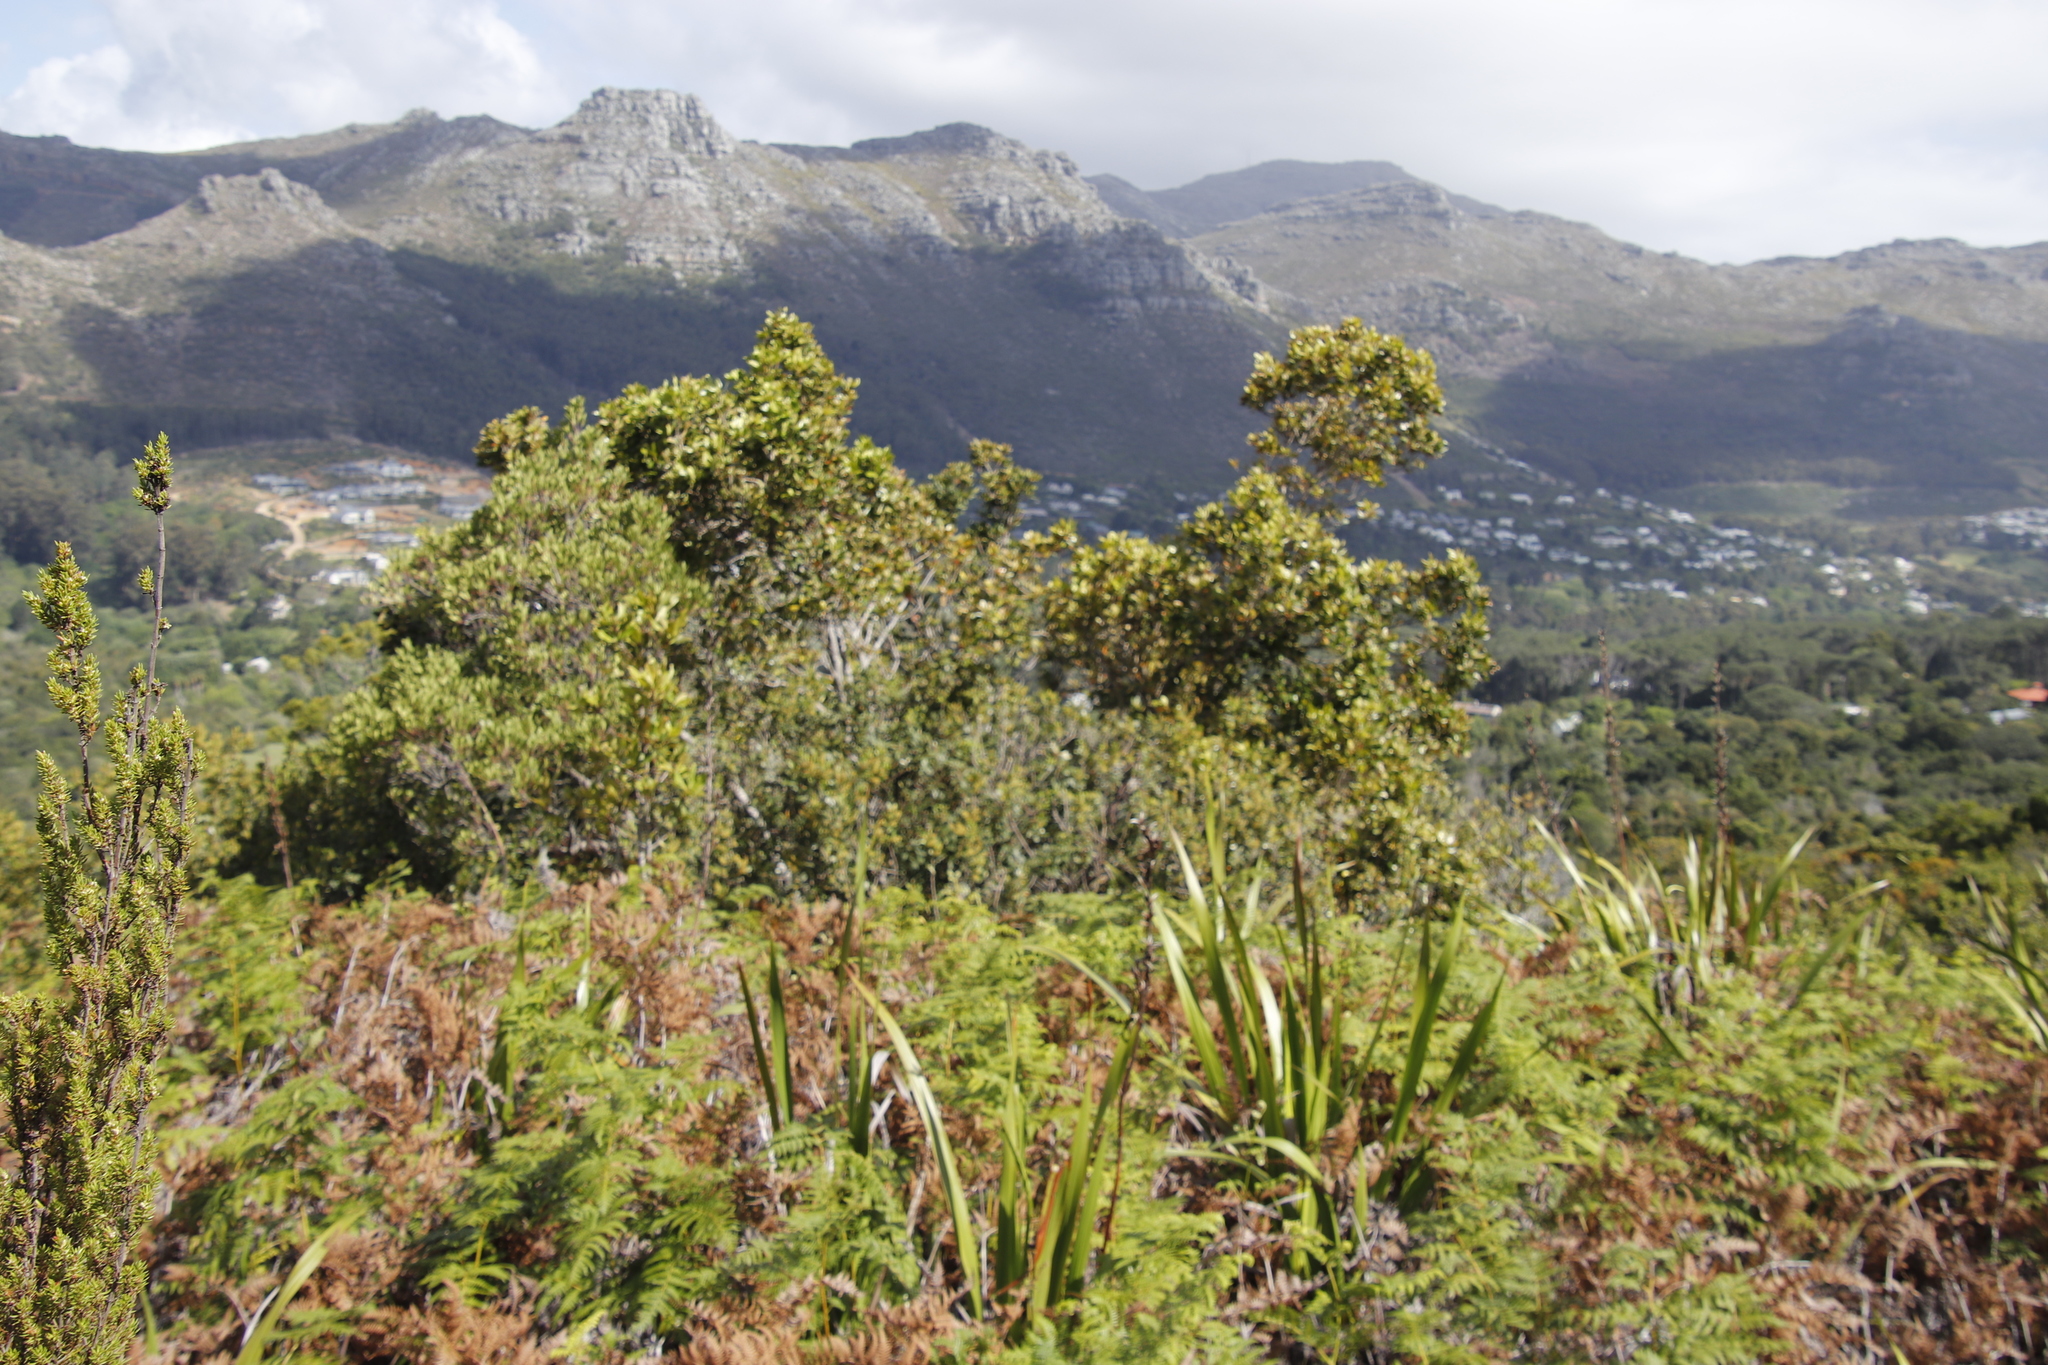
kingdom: Plantae
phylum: Tracheophyta
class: Magnoliopsida
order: Cornales
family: Curtisiaceae
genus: Curtisia
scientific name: Curtisia dentata
